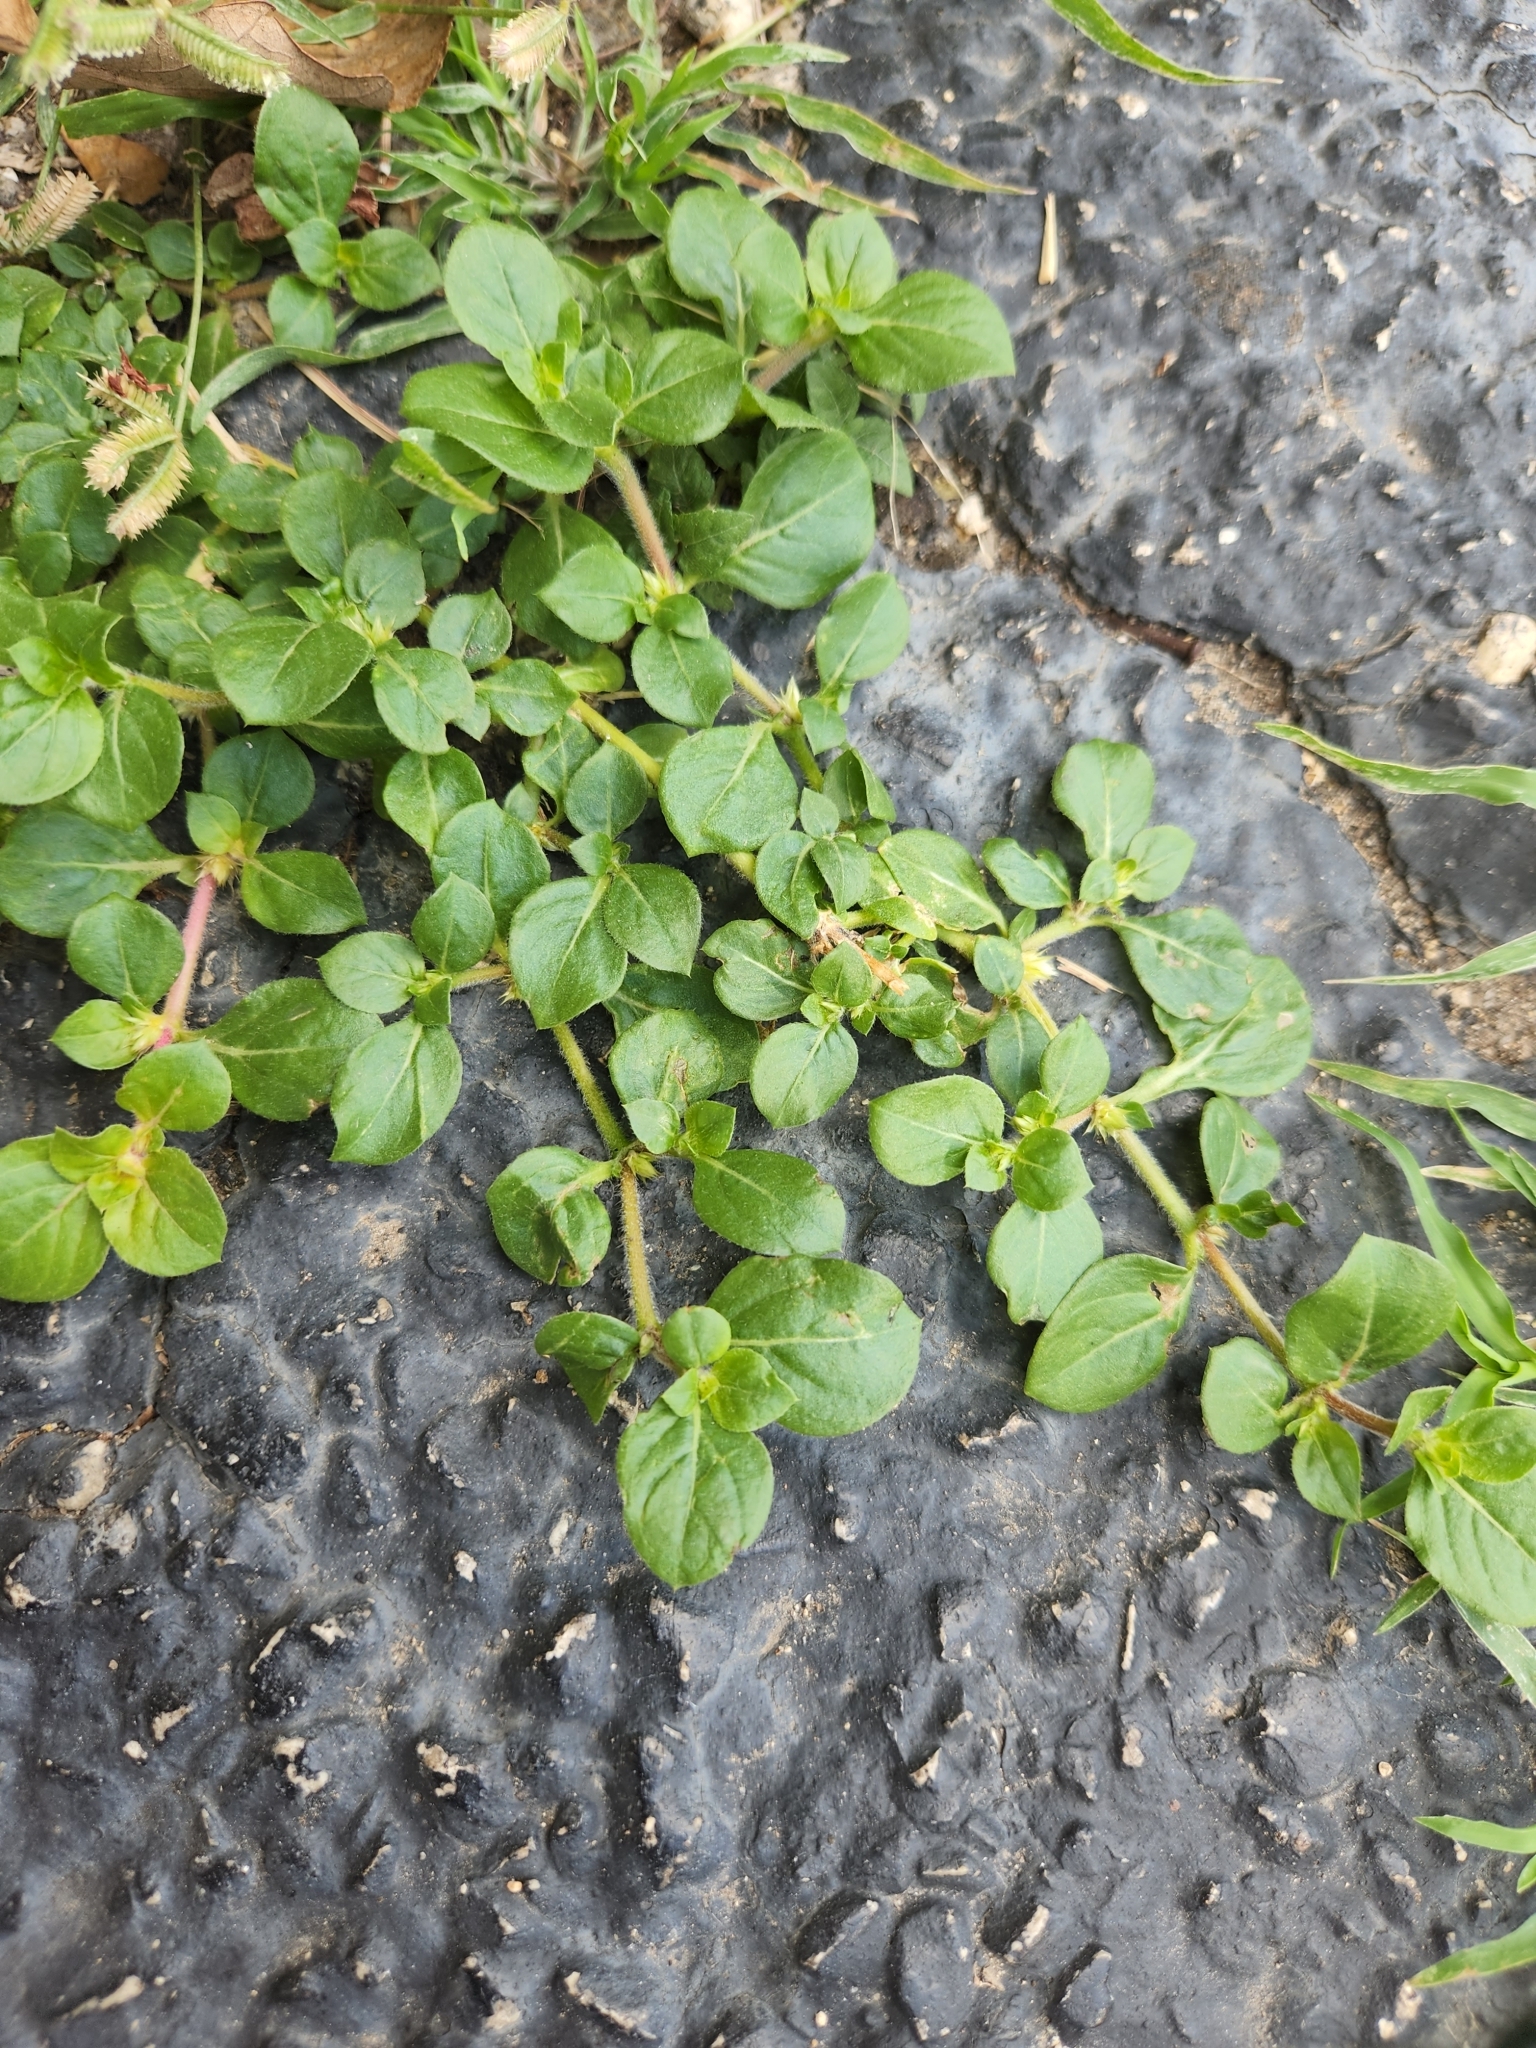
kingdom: Plantae
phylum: Tracheophyta
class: Magnoliopsida
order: Caryophyllales
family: Amaranthaceae
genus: Alternanthera
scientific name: Alternanthera pungens
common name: Khakiweed
